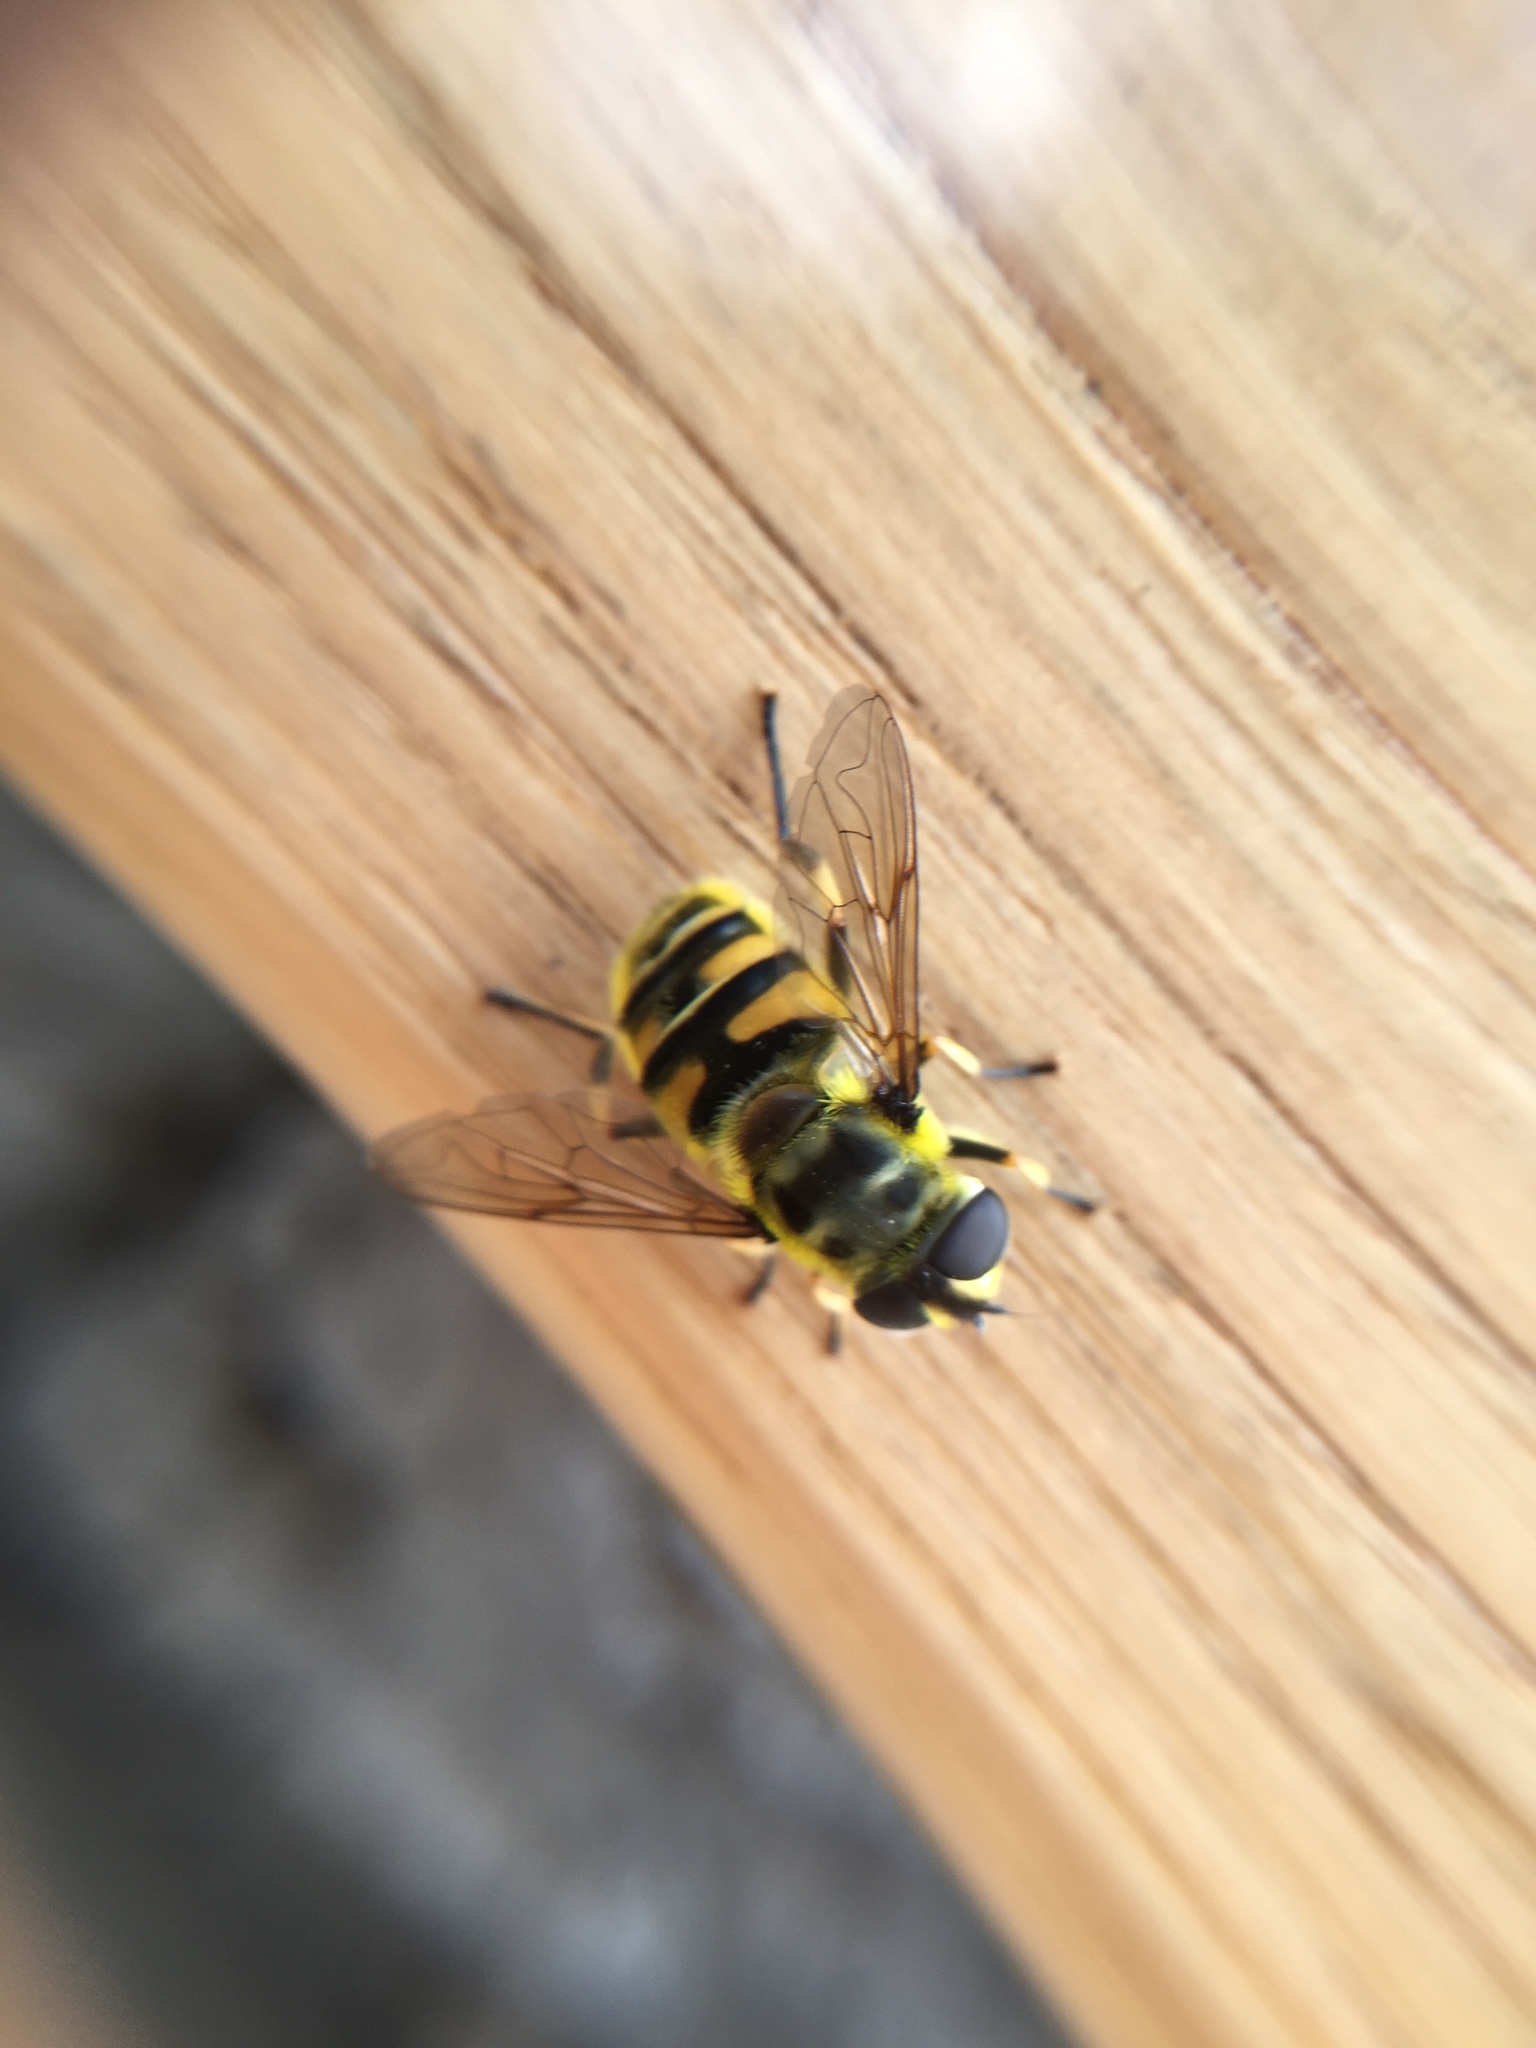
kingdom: Animalia
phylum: Arthropoda
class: Insecta
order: Diptera
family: Syrphidae
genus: Myathropa
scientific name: Myathropa florea
